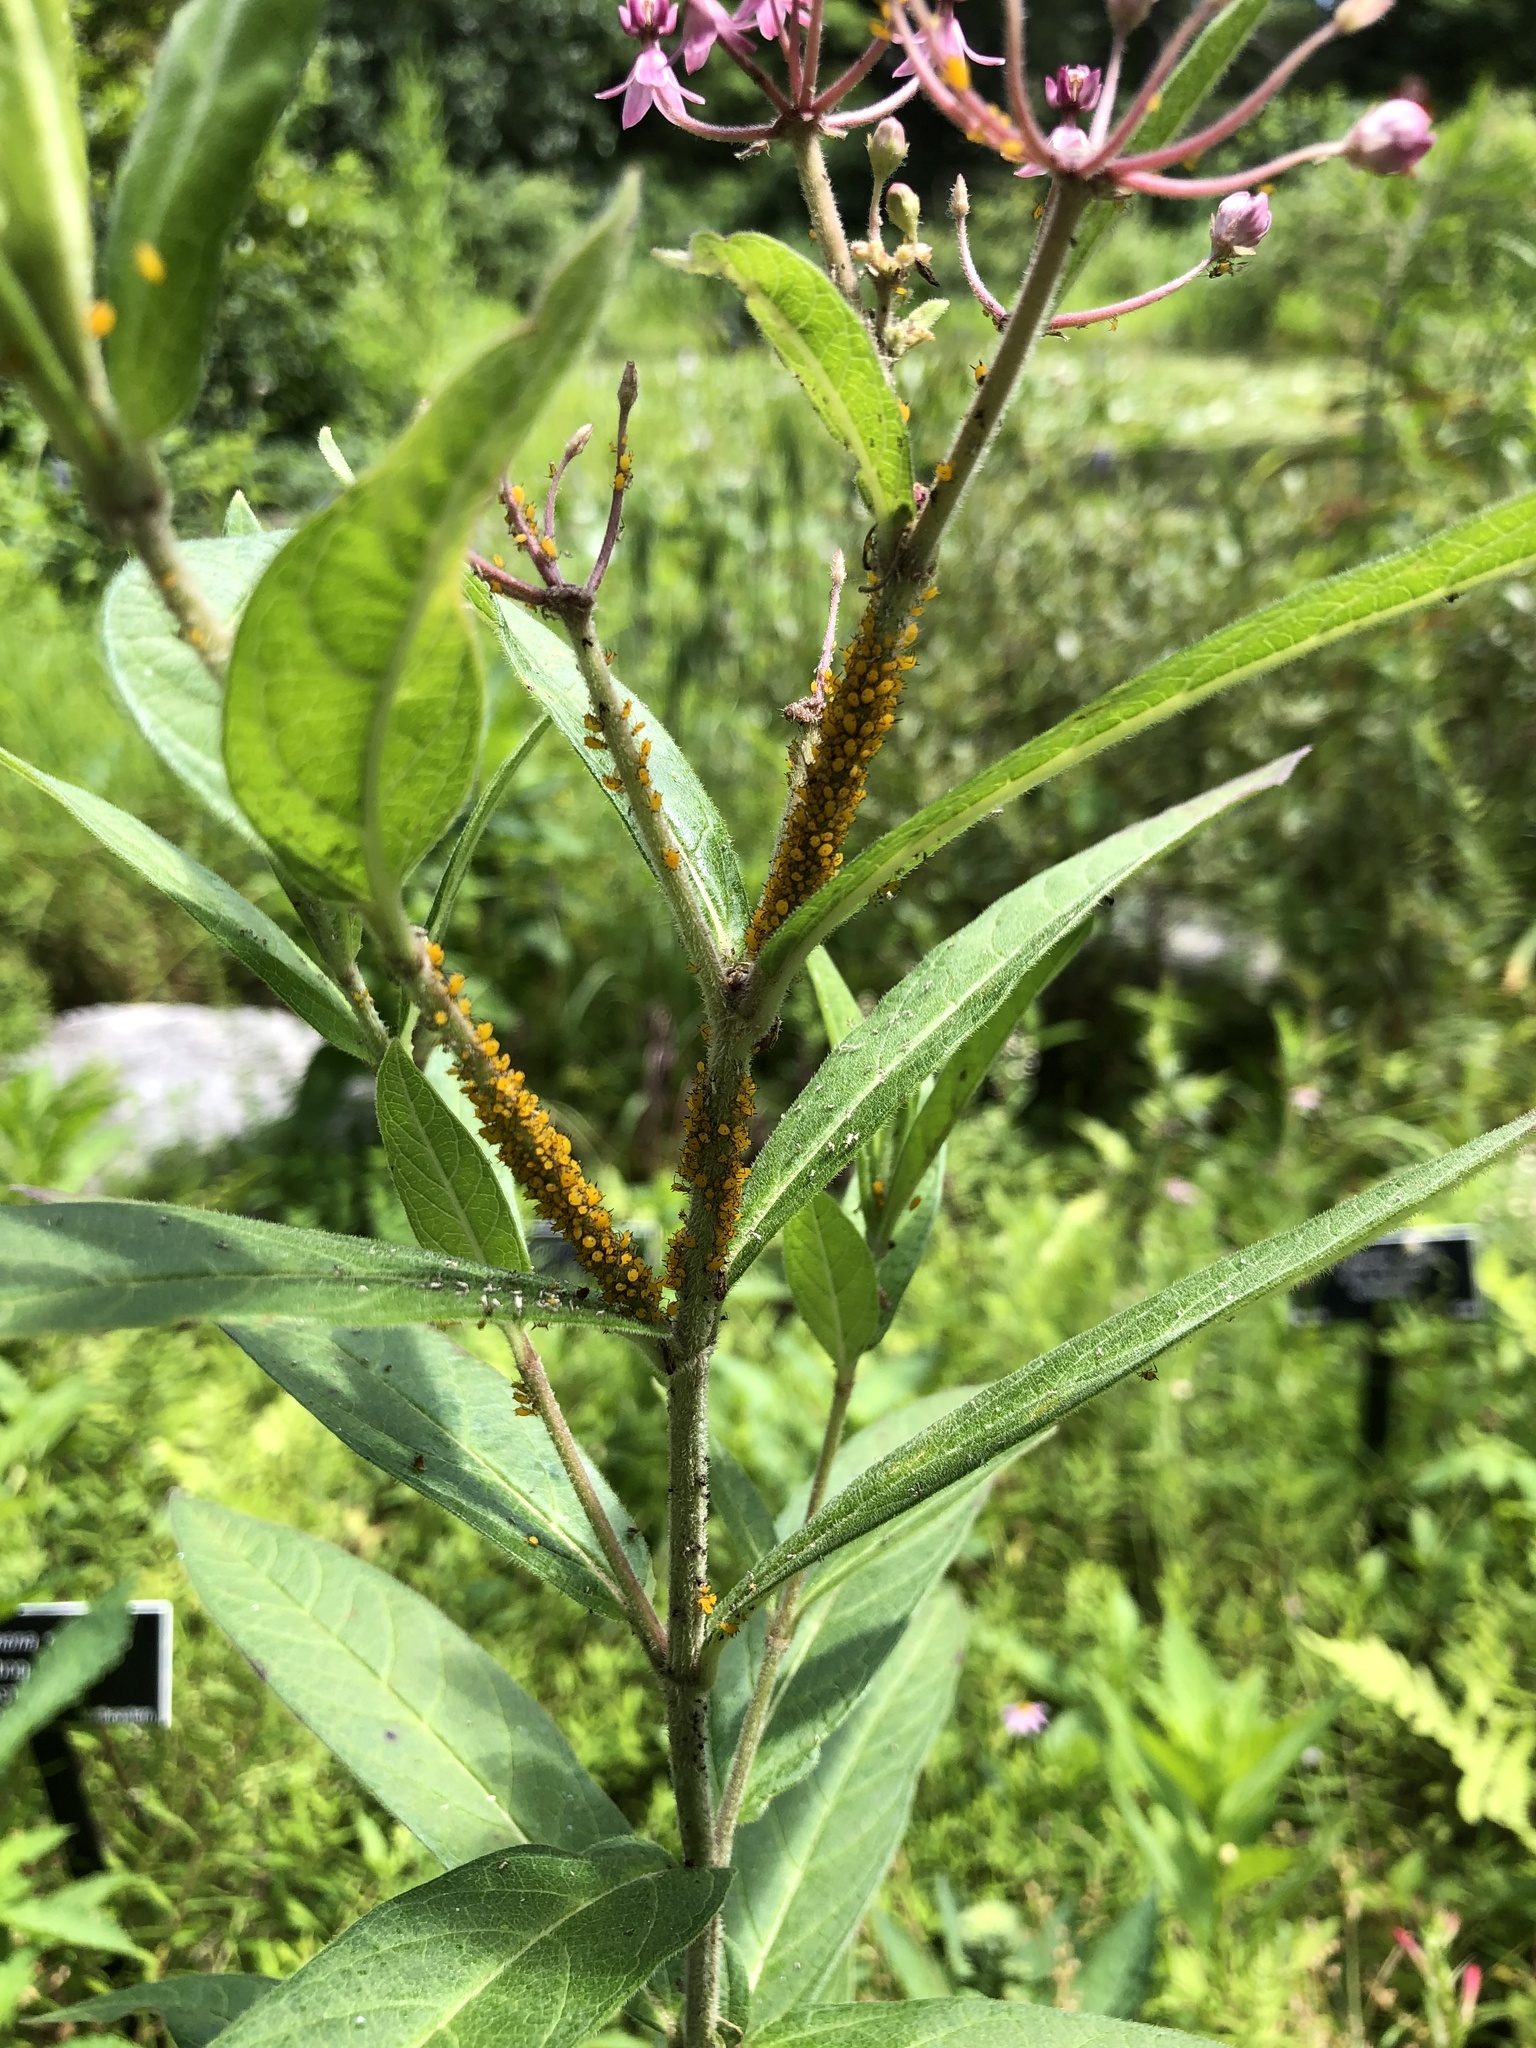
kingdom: Animalia
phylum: Arthropoda
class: Insecta
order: Hemiptera
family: Aphididae
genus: Aphis
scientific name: Aphis nerii
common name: Oleander aphid
